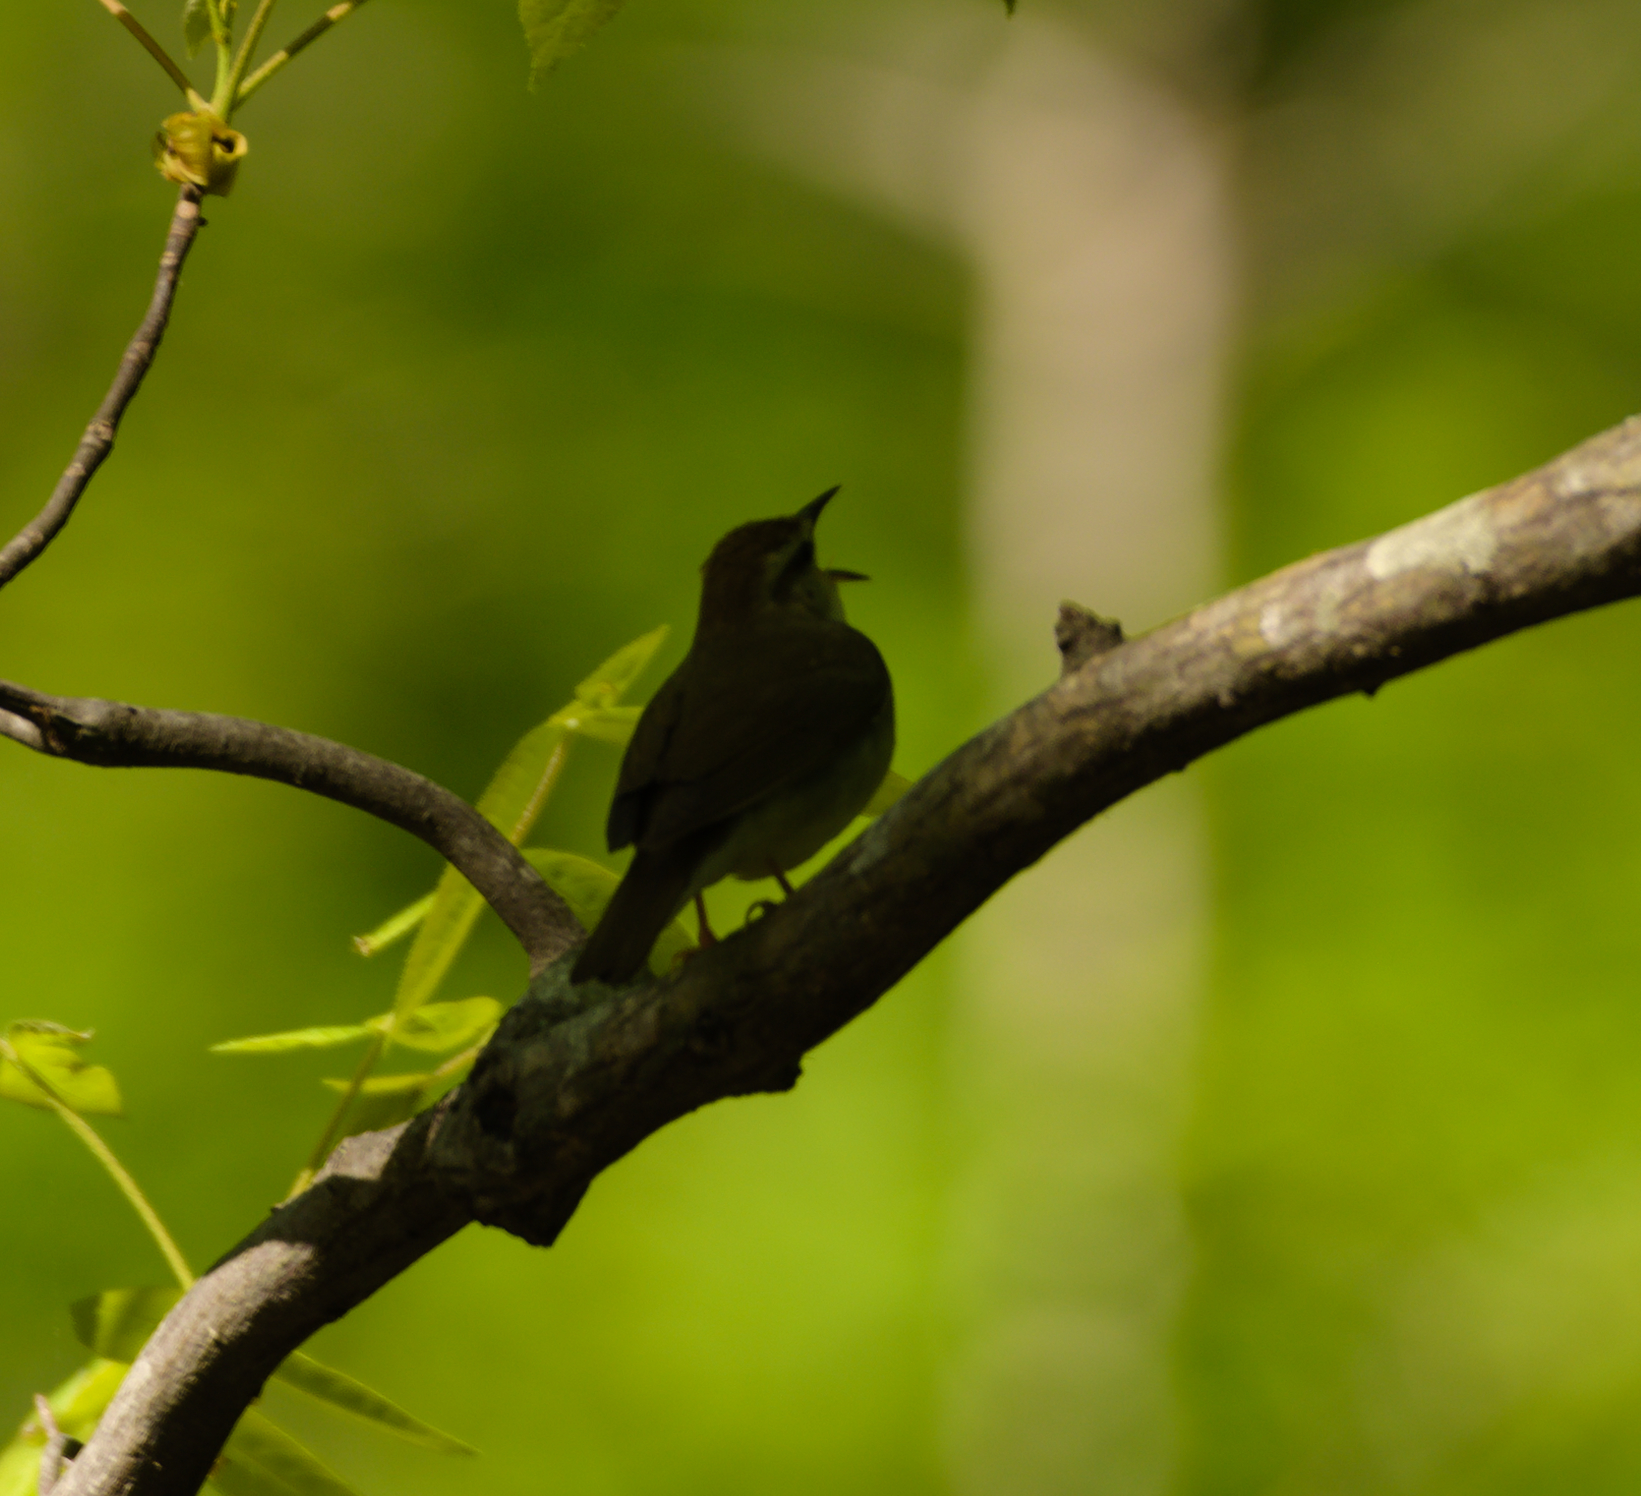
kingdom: Animalia
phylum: Chordata
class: Aves
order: Passeriformes
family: Parulidae
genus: Limnothlypis
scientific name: Limnothlypis swainsonii
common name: Swainson's warbler
